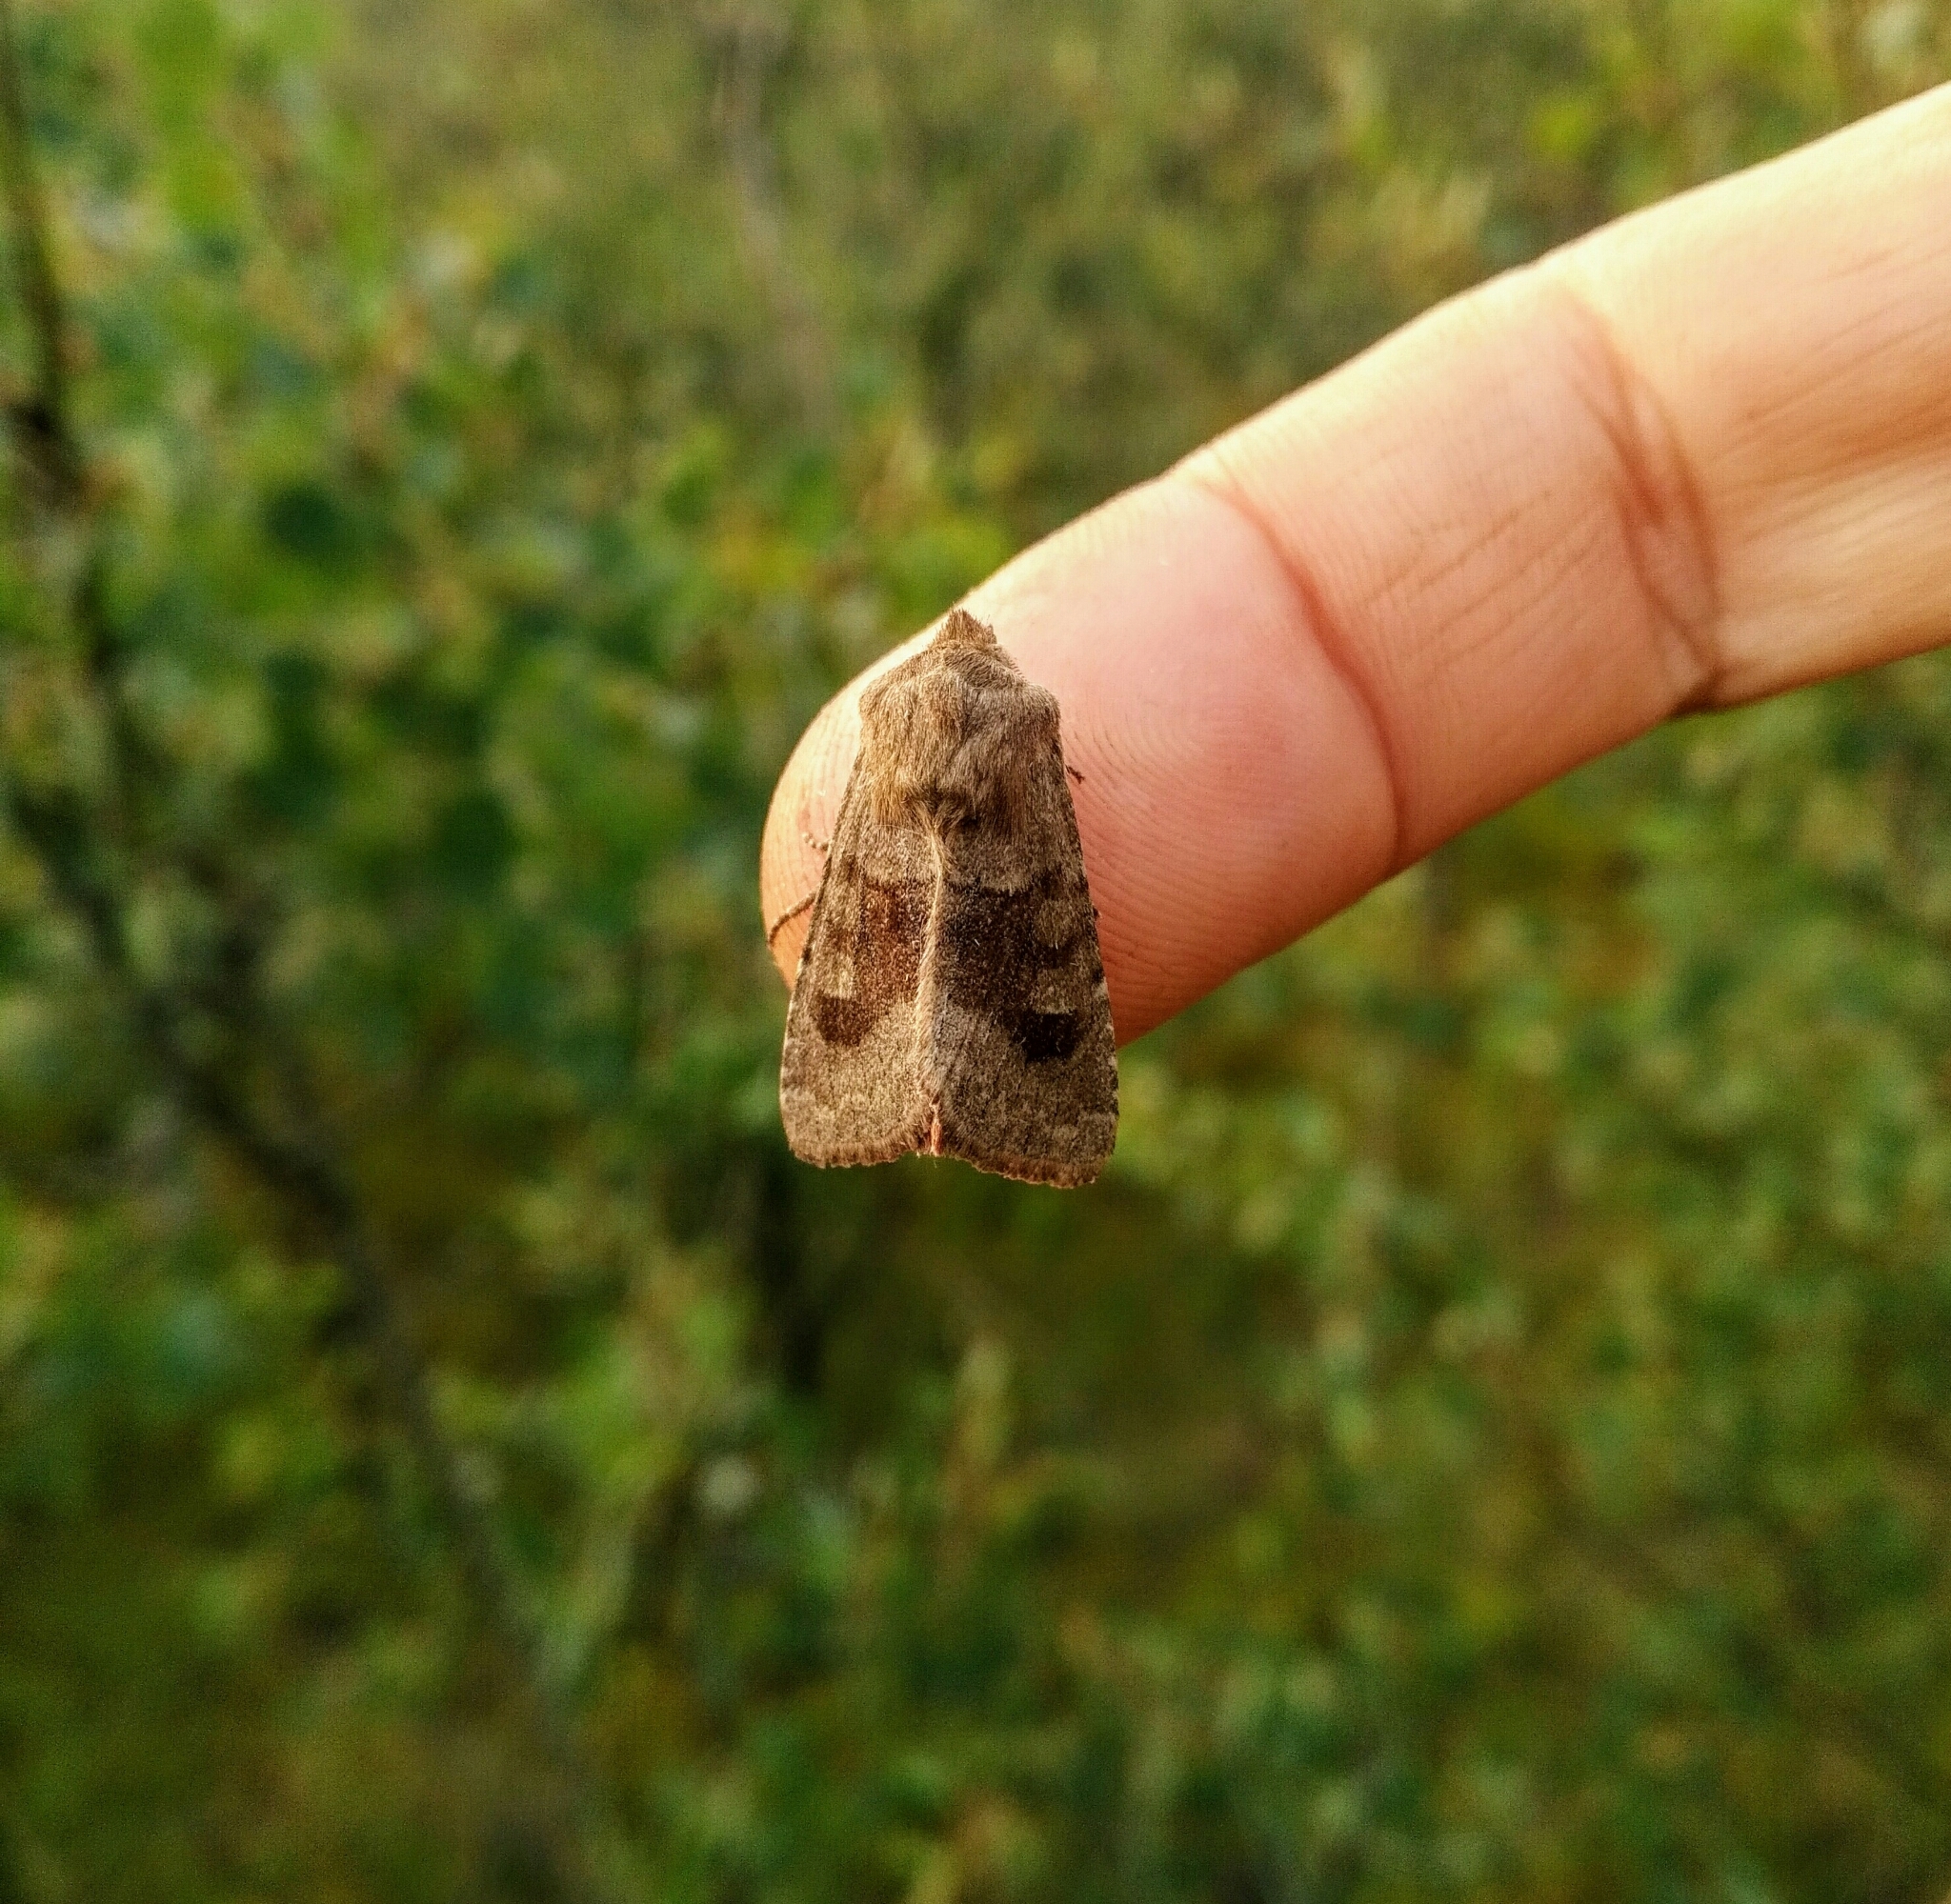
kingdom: Animalia
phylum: Arthropoda
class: Insecta
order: Lepidoptera
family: Noctuidae
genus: Nephelodes
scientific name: Nephelodes minians
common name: Bronzed cutworm
